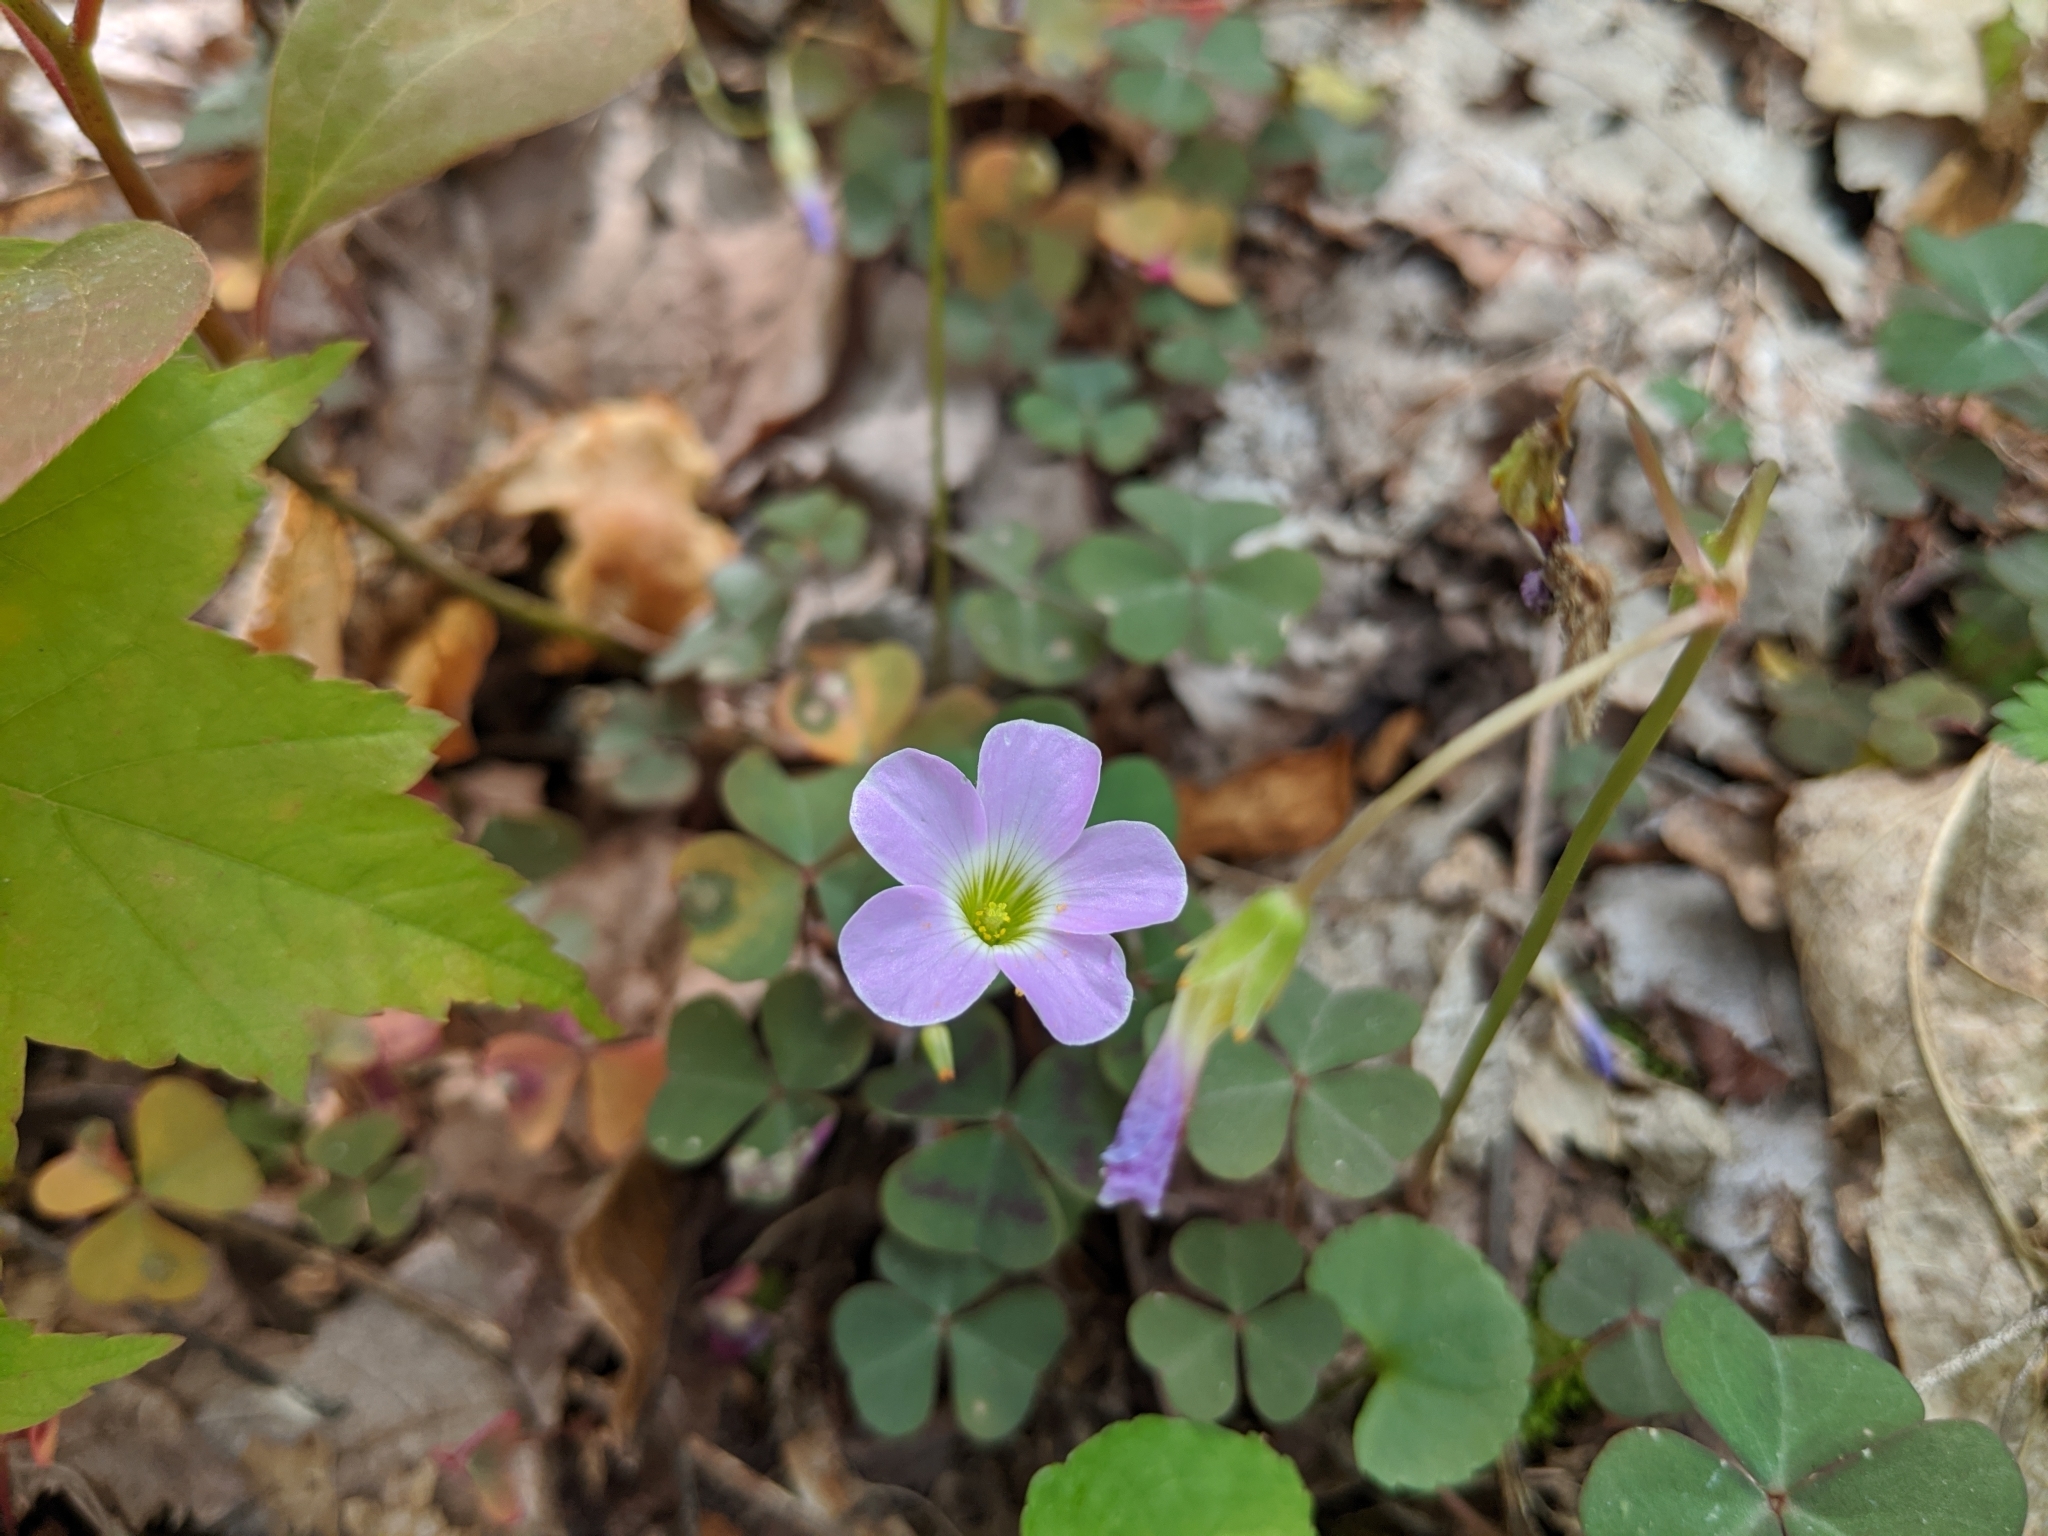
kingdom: Plantae
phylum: Tracheophyta
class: Magnoliopsida
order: Oxalidales
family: Oxalidaceae
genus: Oxalis
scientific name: Oxalis violacea
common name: Violet wood-sorrel
